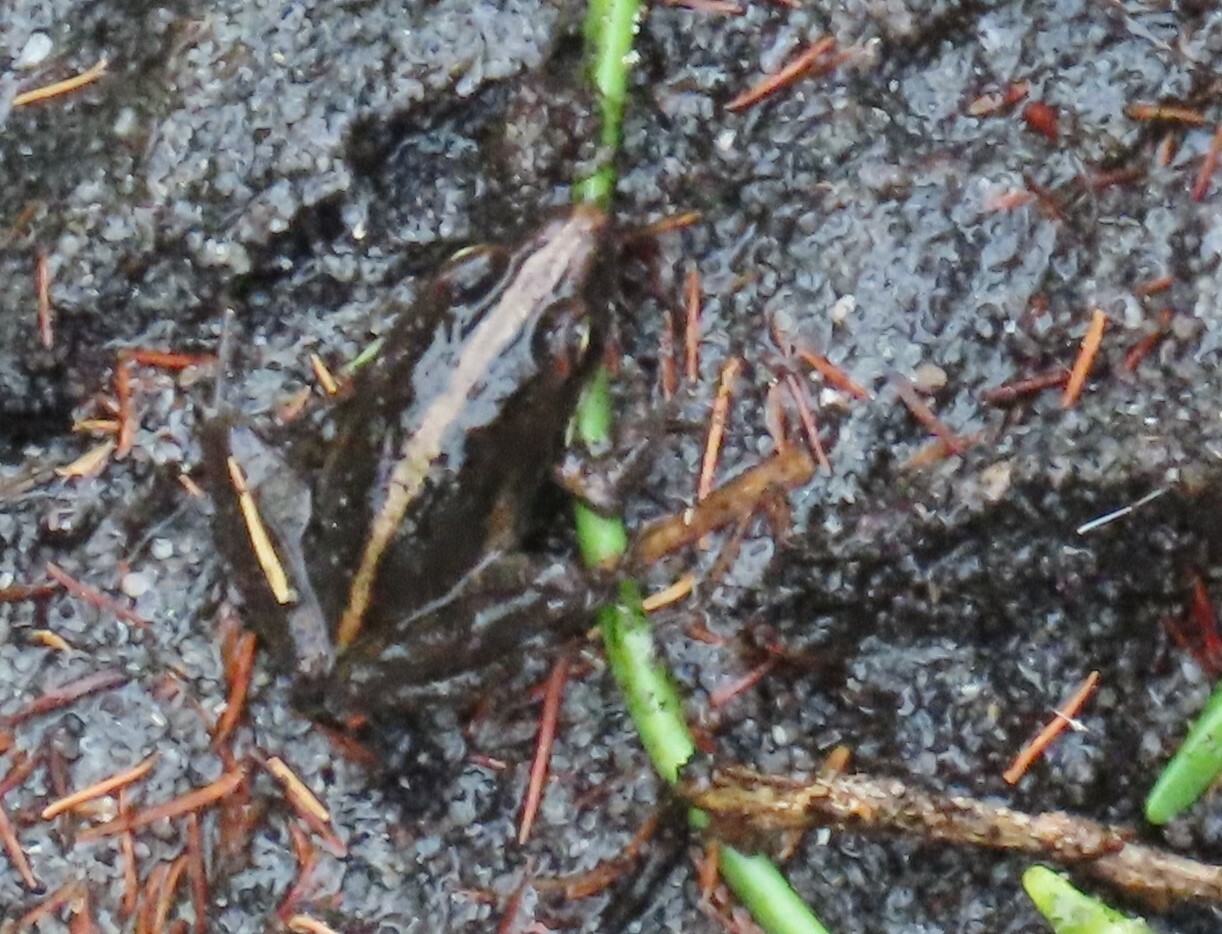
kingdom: Animalia
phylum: Chordata
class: Amphibia
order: Anura
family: Pyxicephalidae
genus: Strongylopus
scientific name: Strongylopus grayii
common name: Gray's stream frog
